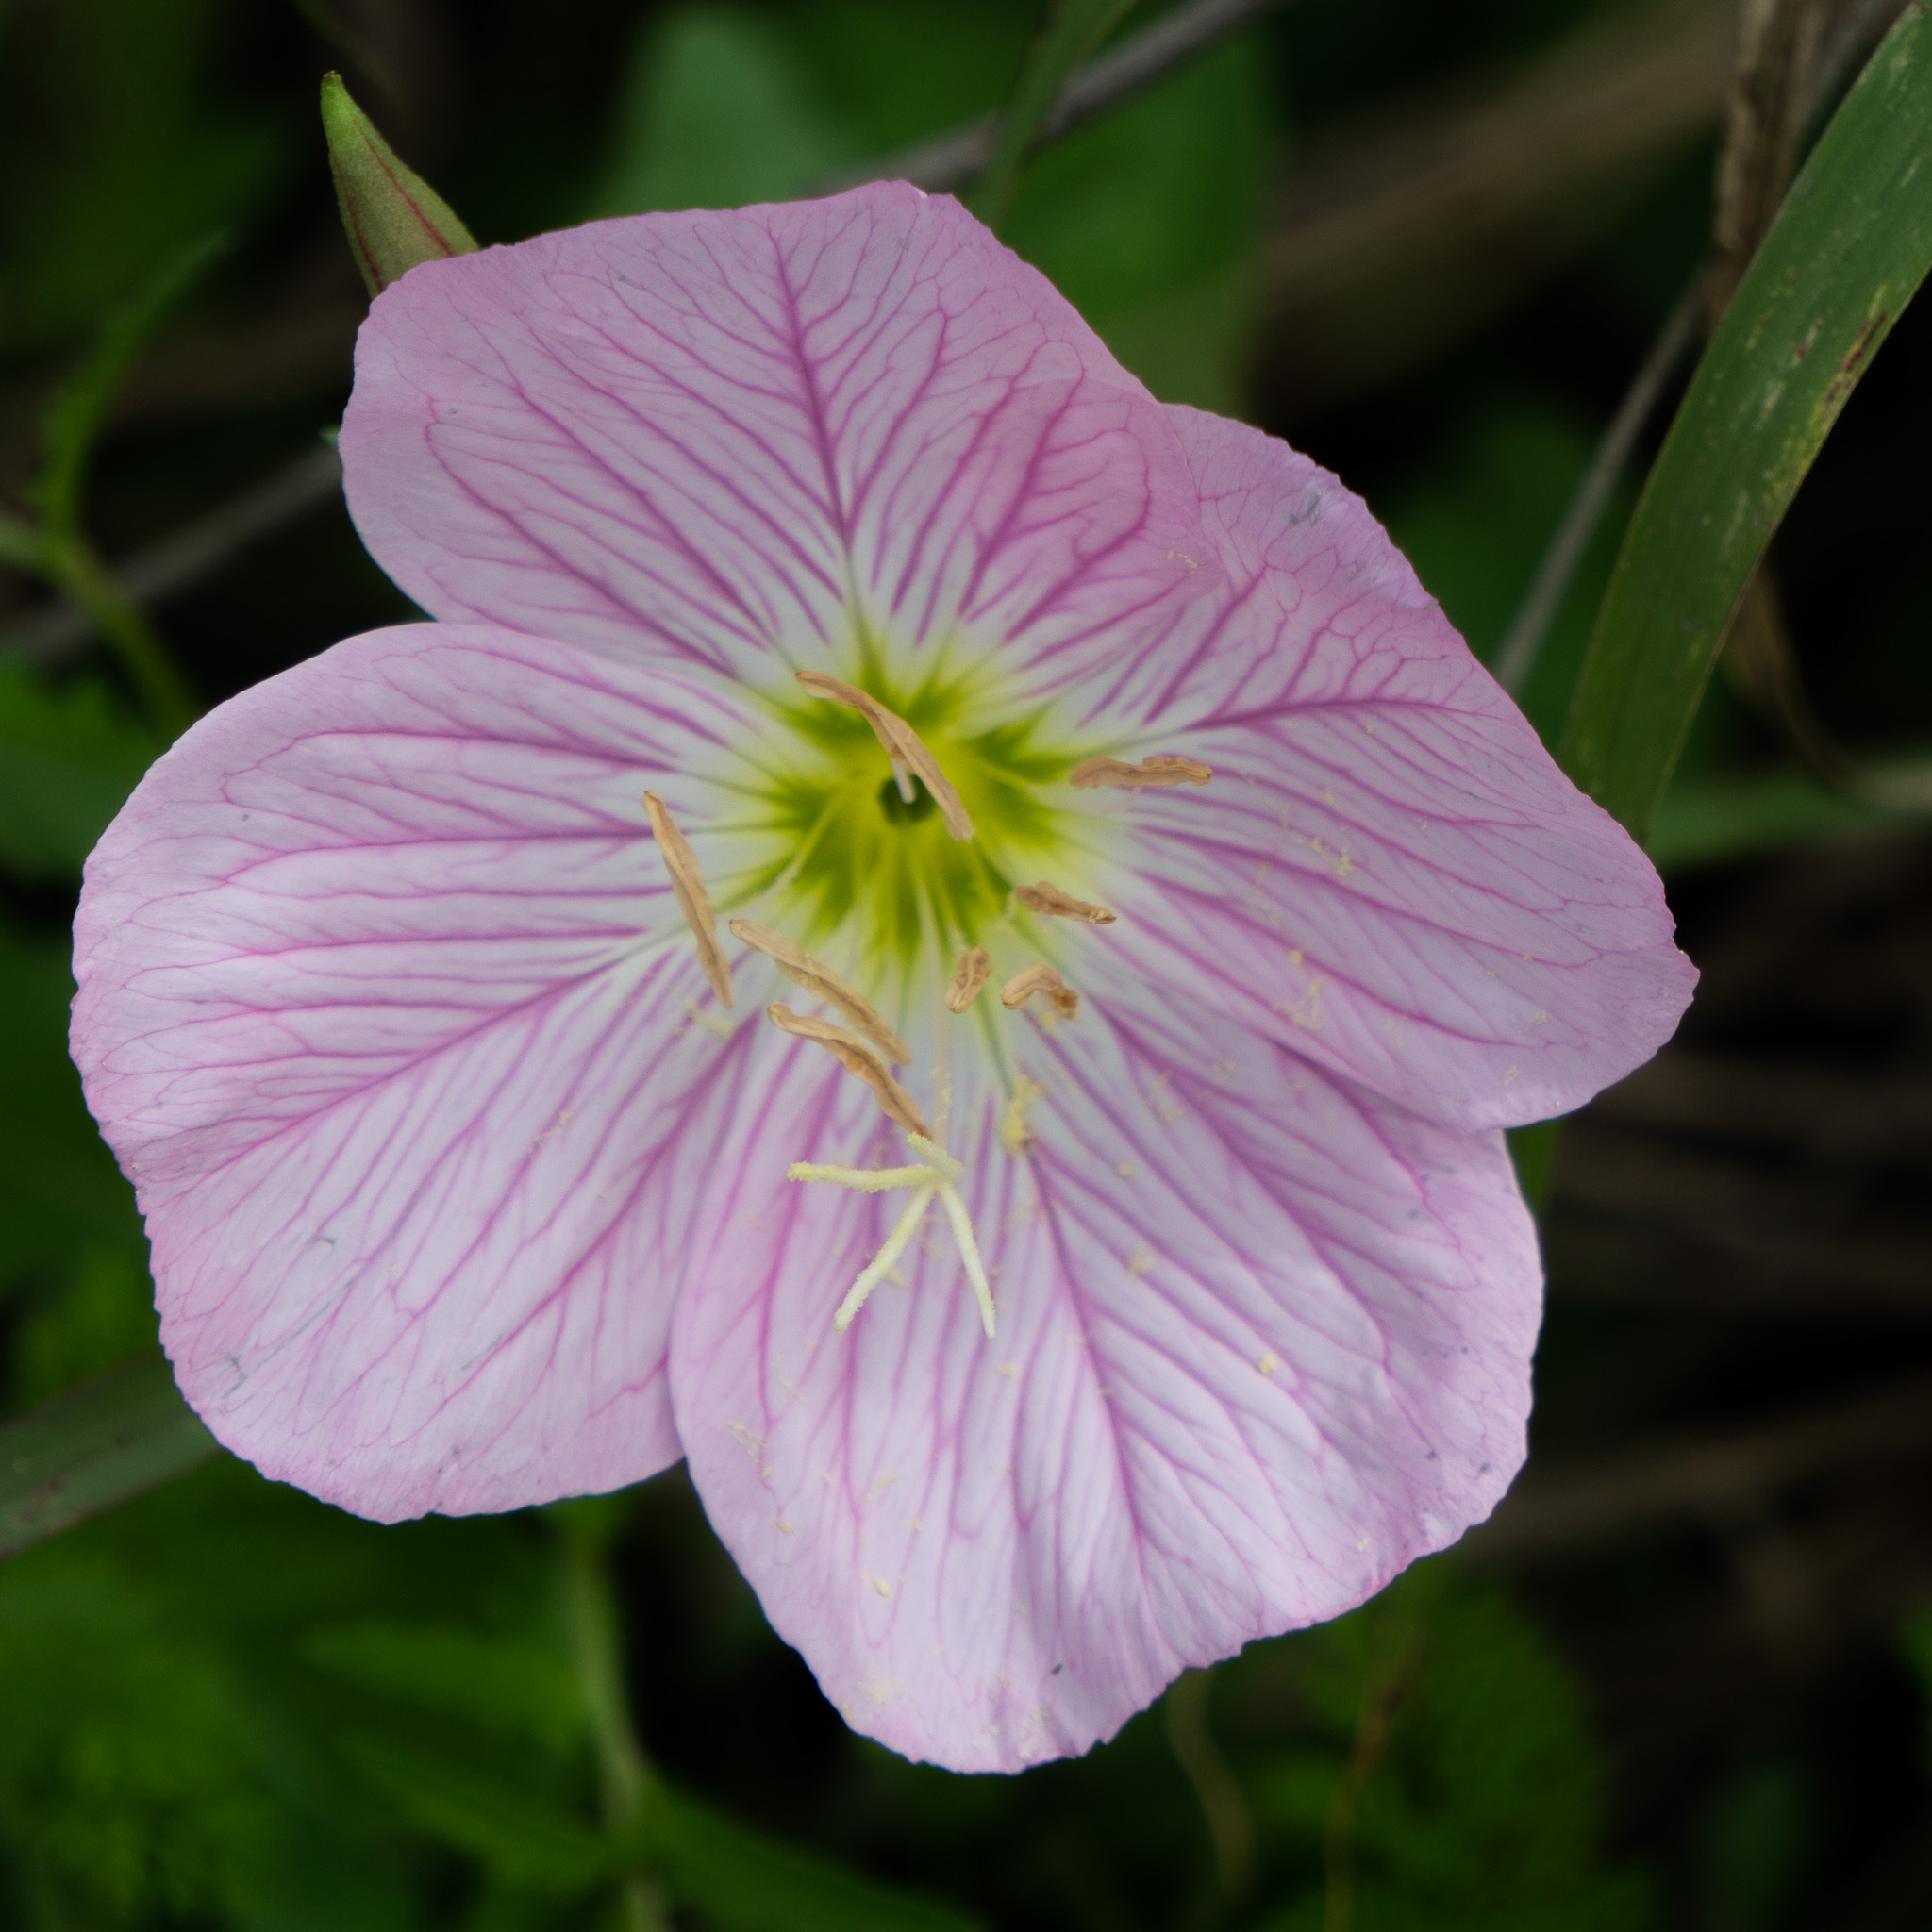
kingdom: Plantae
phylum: Tracheophyta
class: Magnoliopsida
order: Myrtales
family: Onagraceae
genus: Oenothera
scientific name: Oenothera speciosa
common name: White evening-primrose
